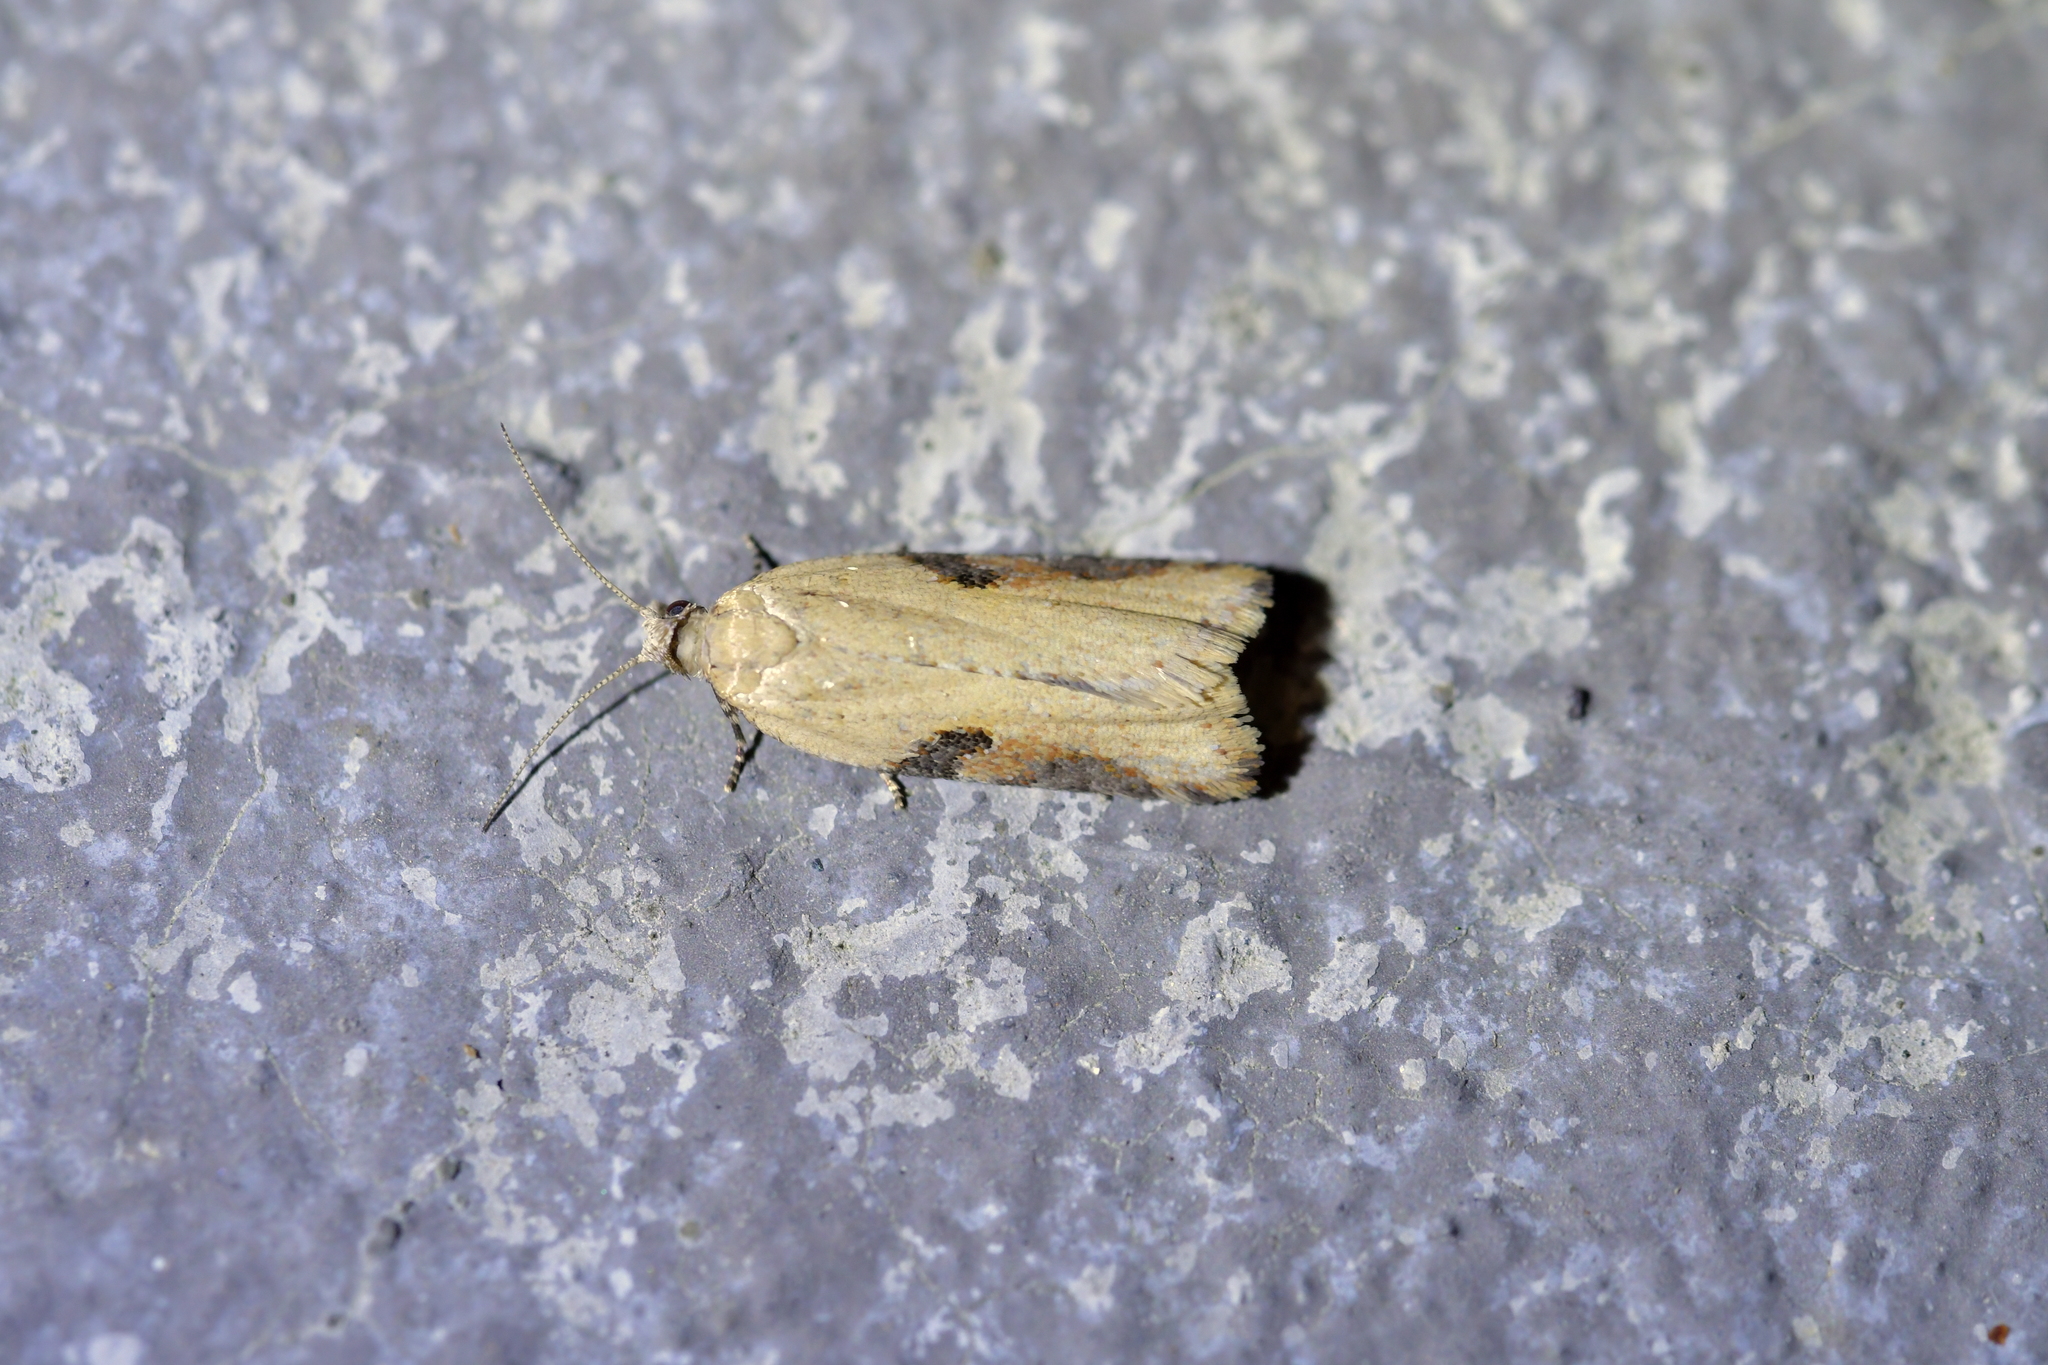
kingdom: Animalia
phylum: Arthropoda
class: Insecta
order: Lepidoptera
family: Tortricidae
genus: Capua
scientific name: Capua semiferana
